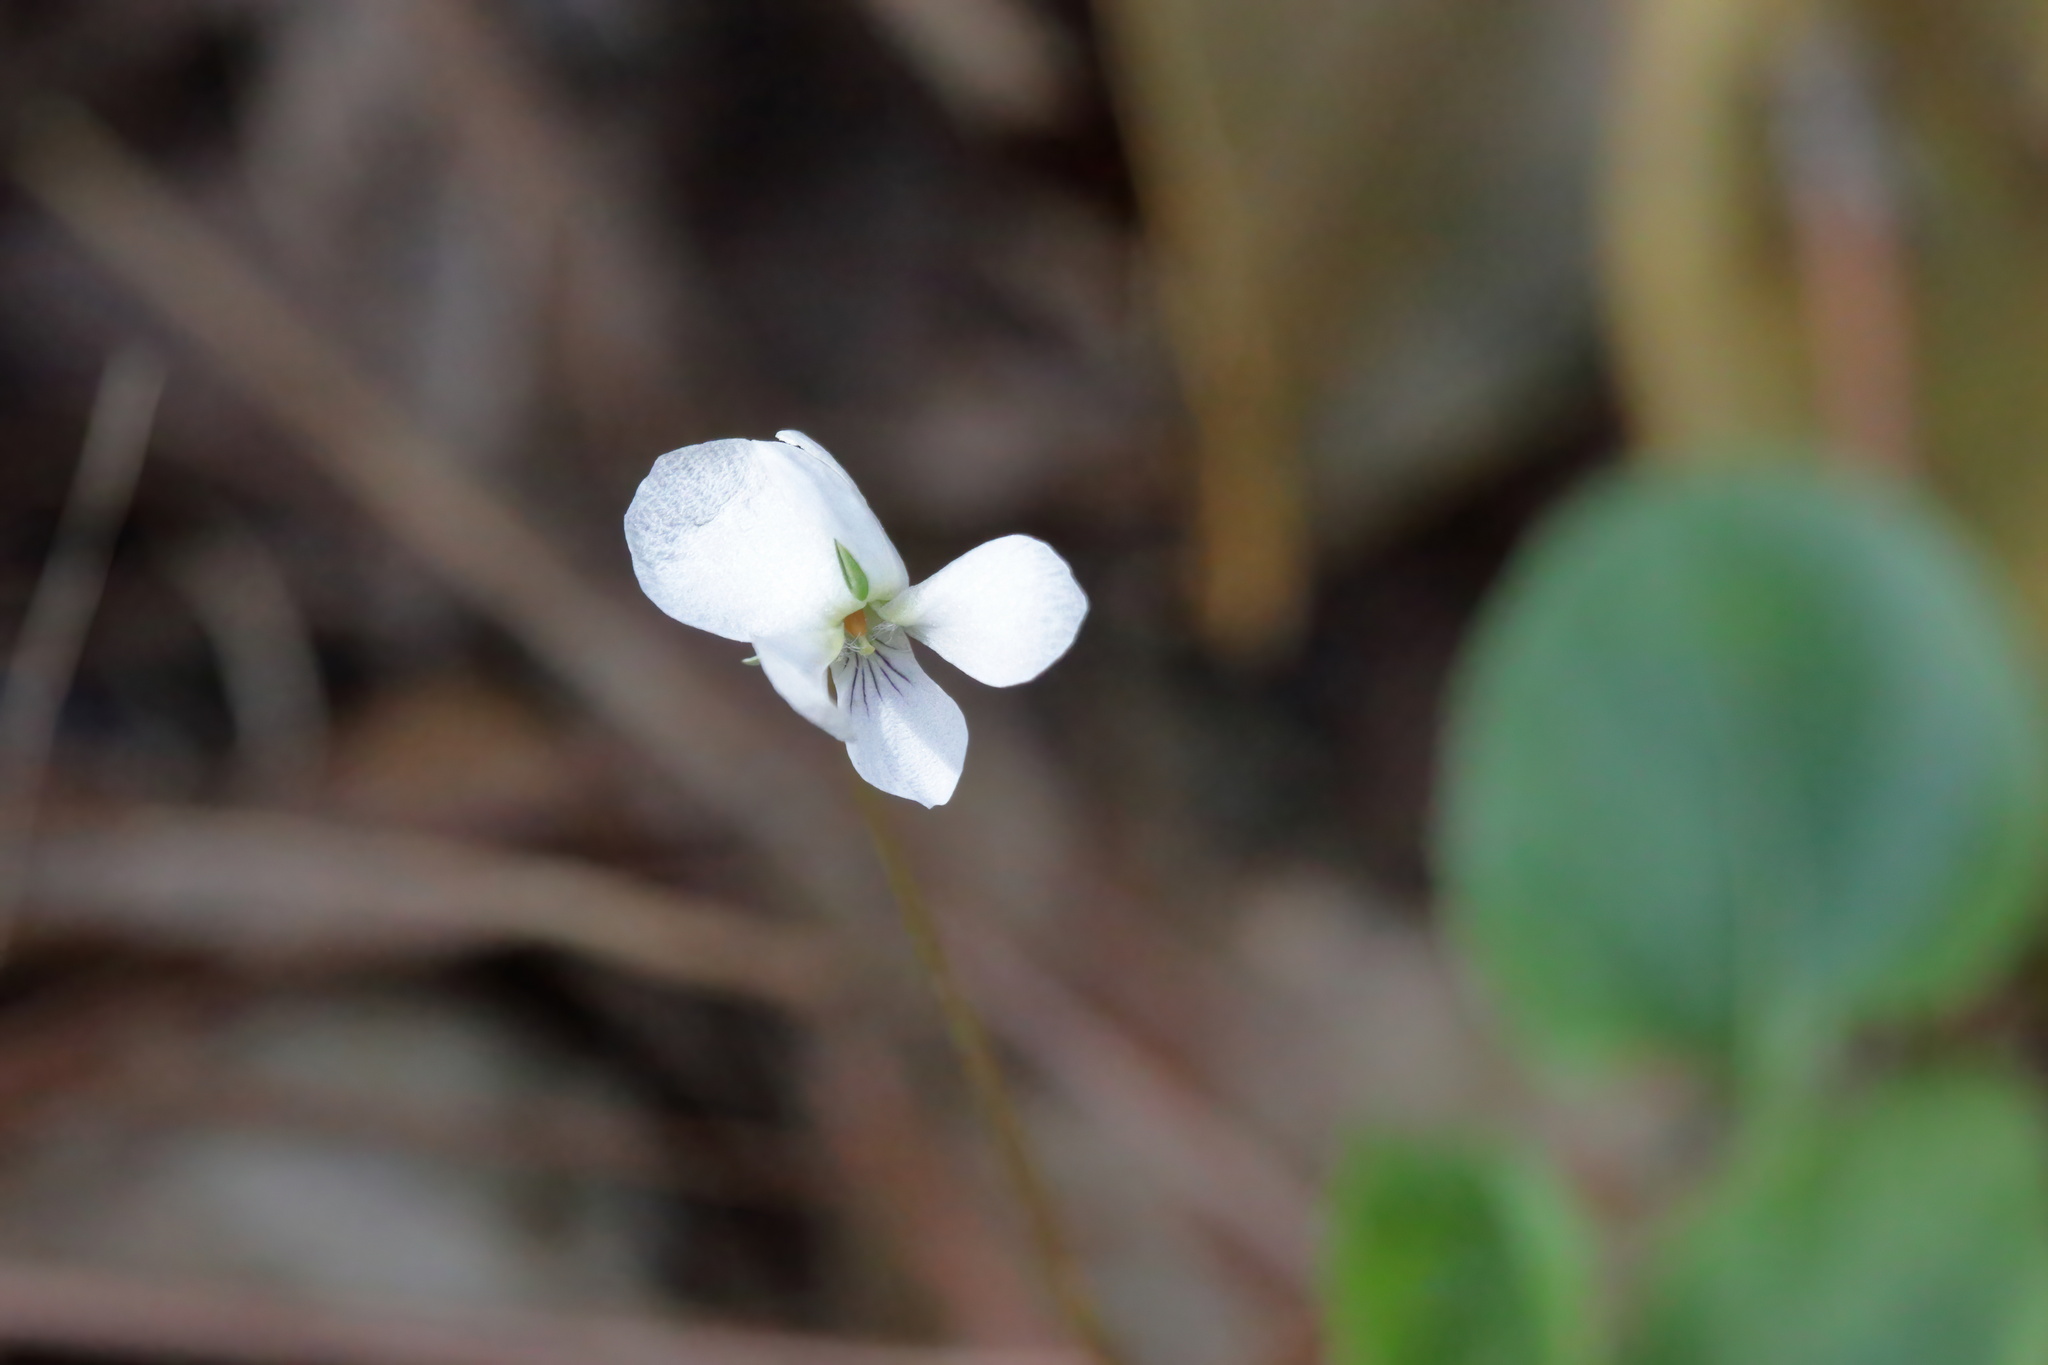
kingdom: Plantae
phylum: Tracheophyta
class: Magnoliopsida
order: Malpighiales
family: Violaceae
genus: Viola
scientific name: Viola primulifolia
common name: Primrose-leaf violet
